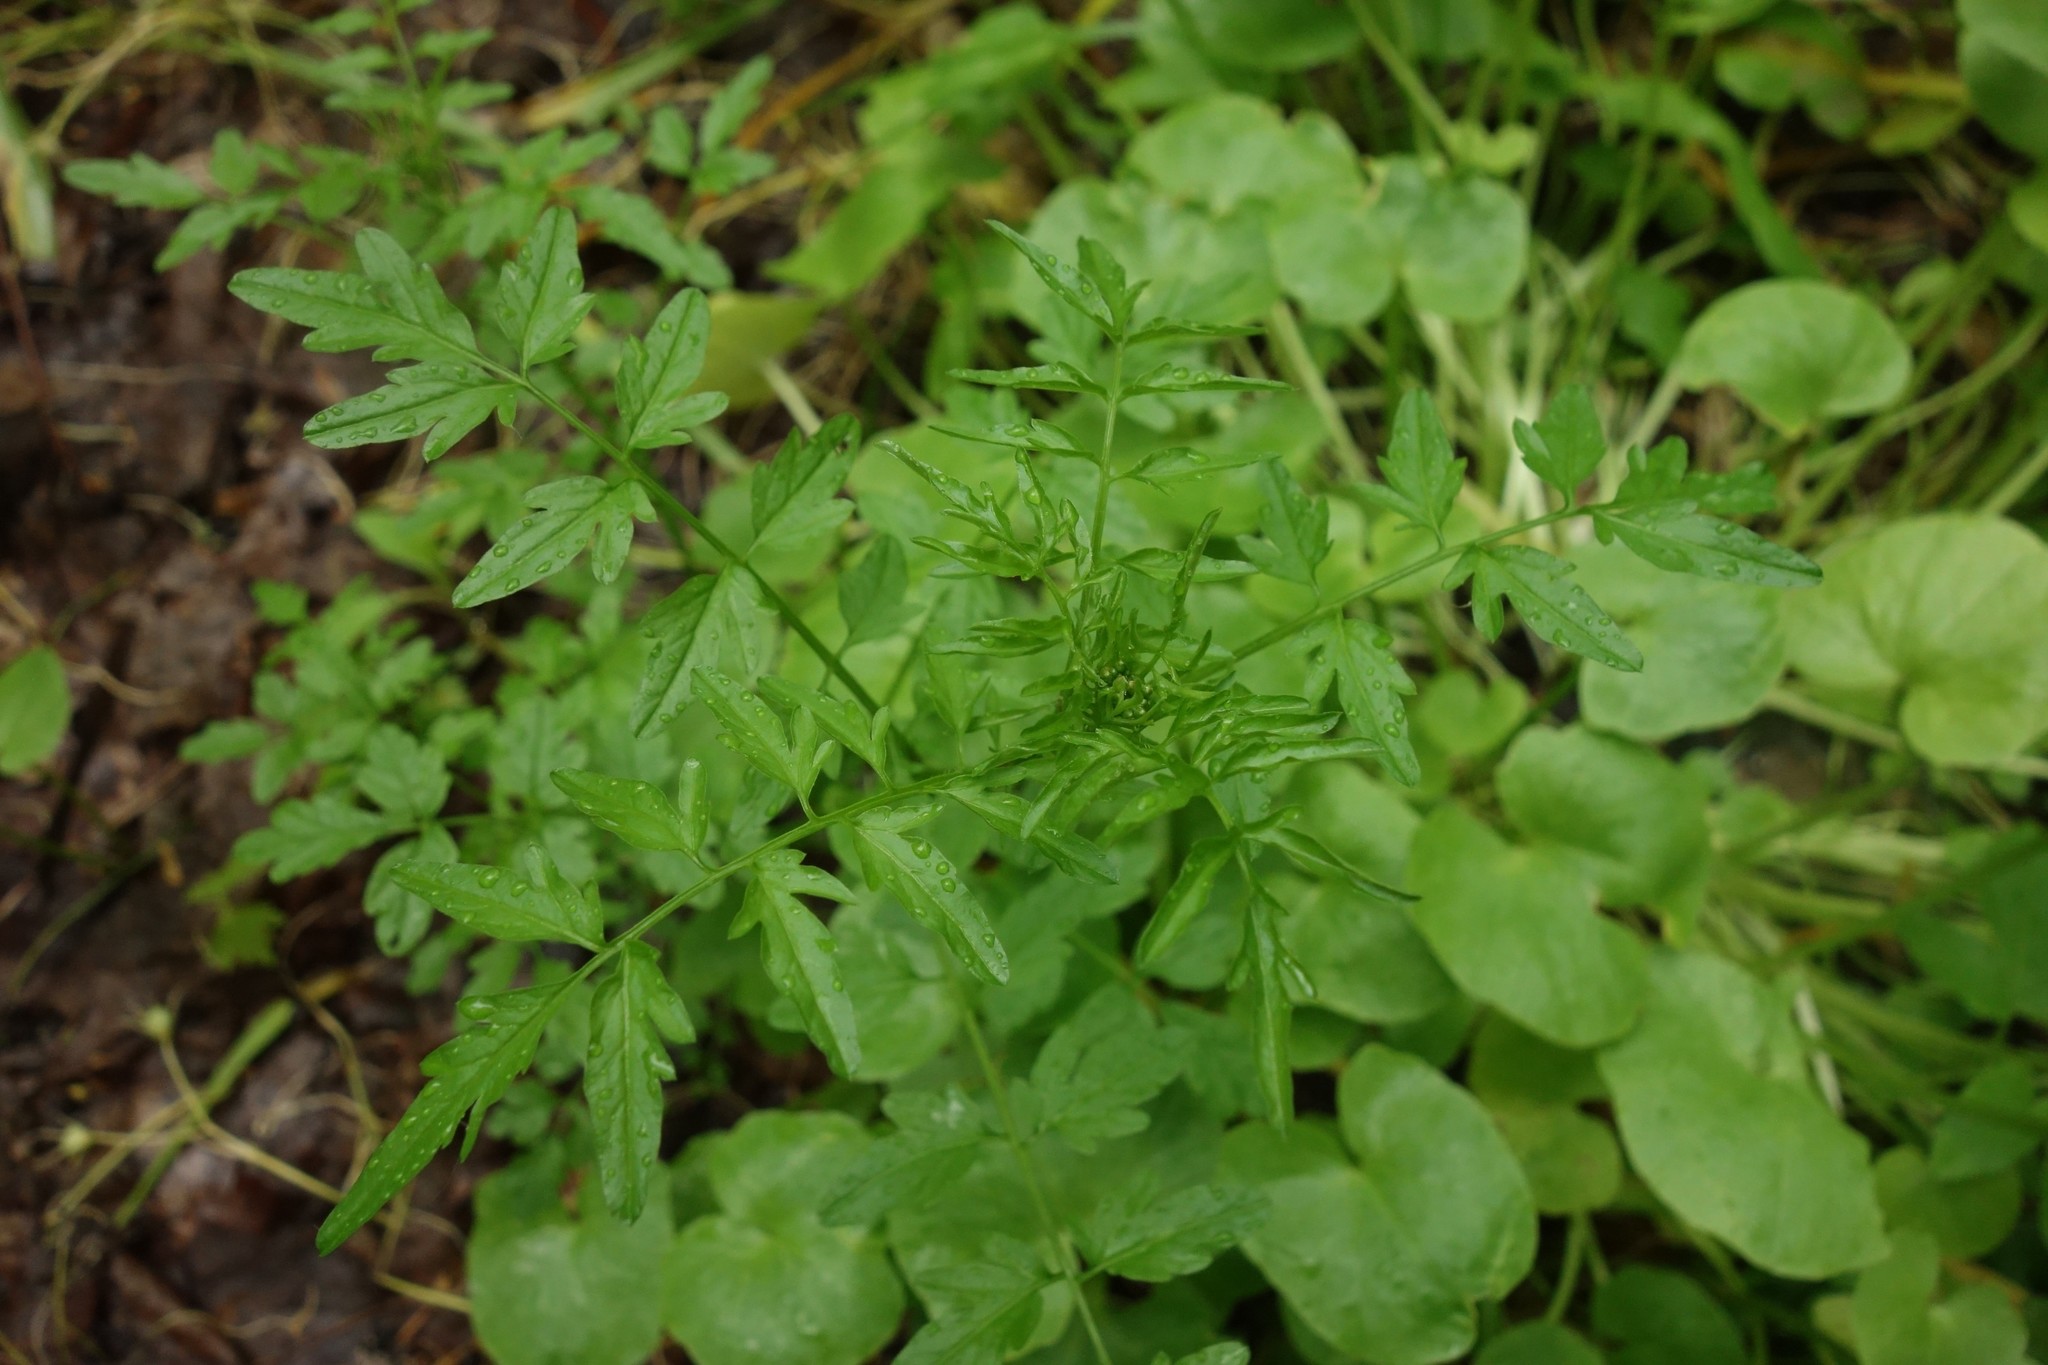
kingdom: Plantae
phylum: Tracheophyta
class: Magnoliopsida
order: Brassicales
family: Brassicaceae
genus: Cardamine
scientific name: Cardamine impatiens
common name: Narrow-leaved bitter-cress
